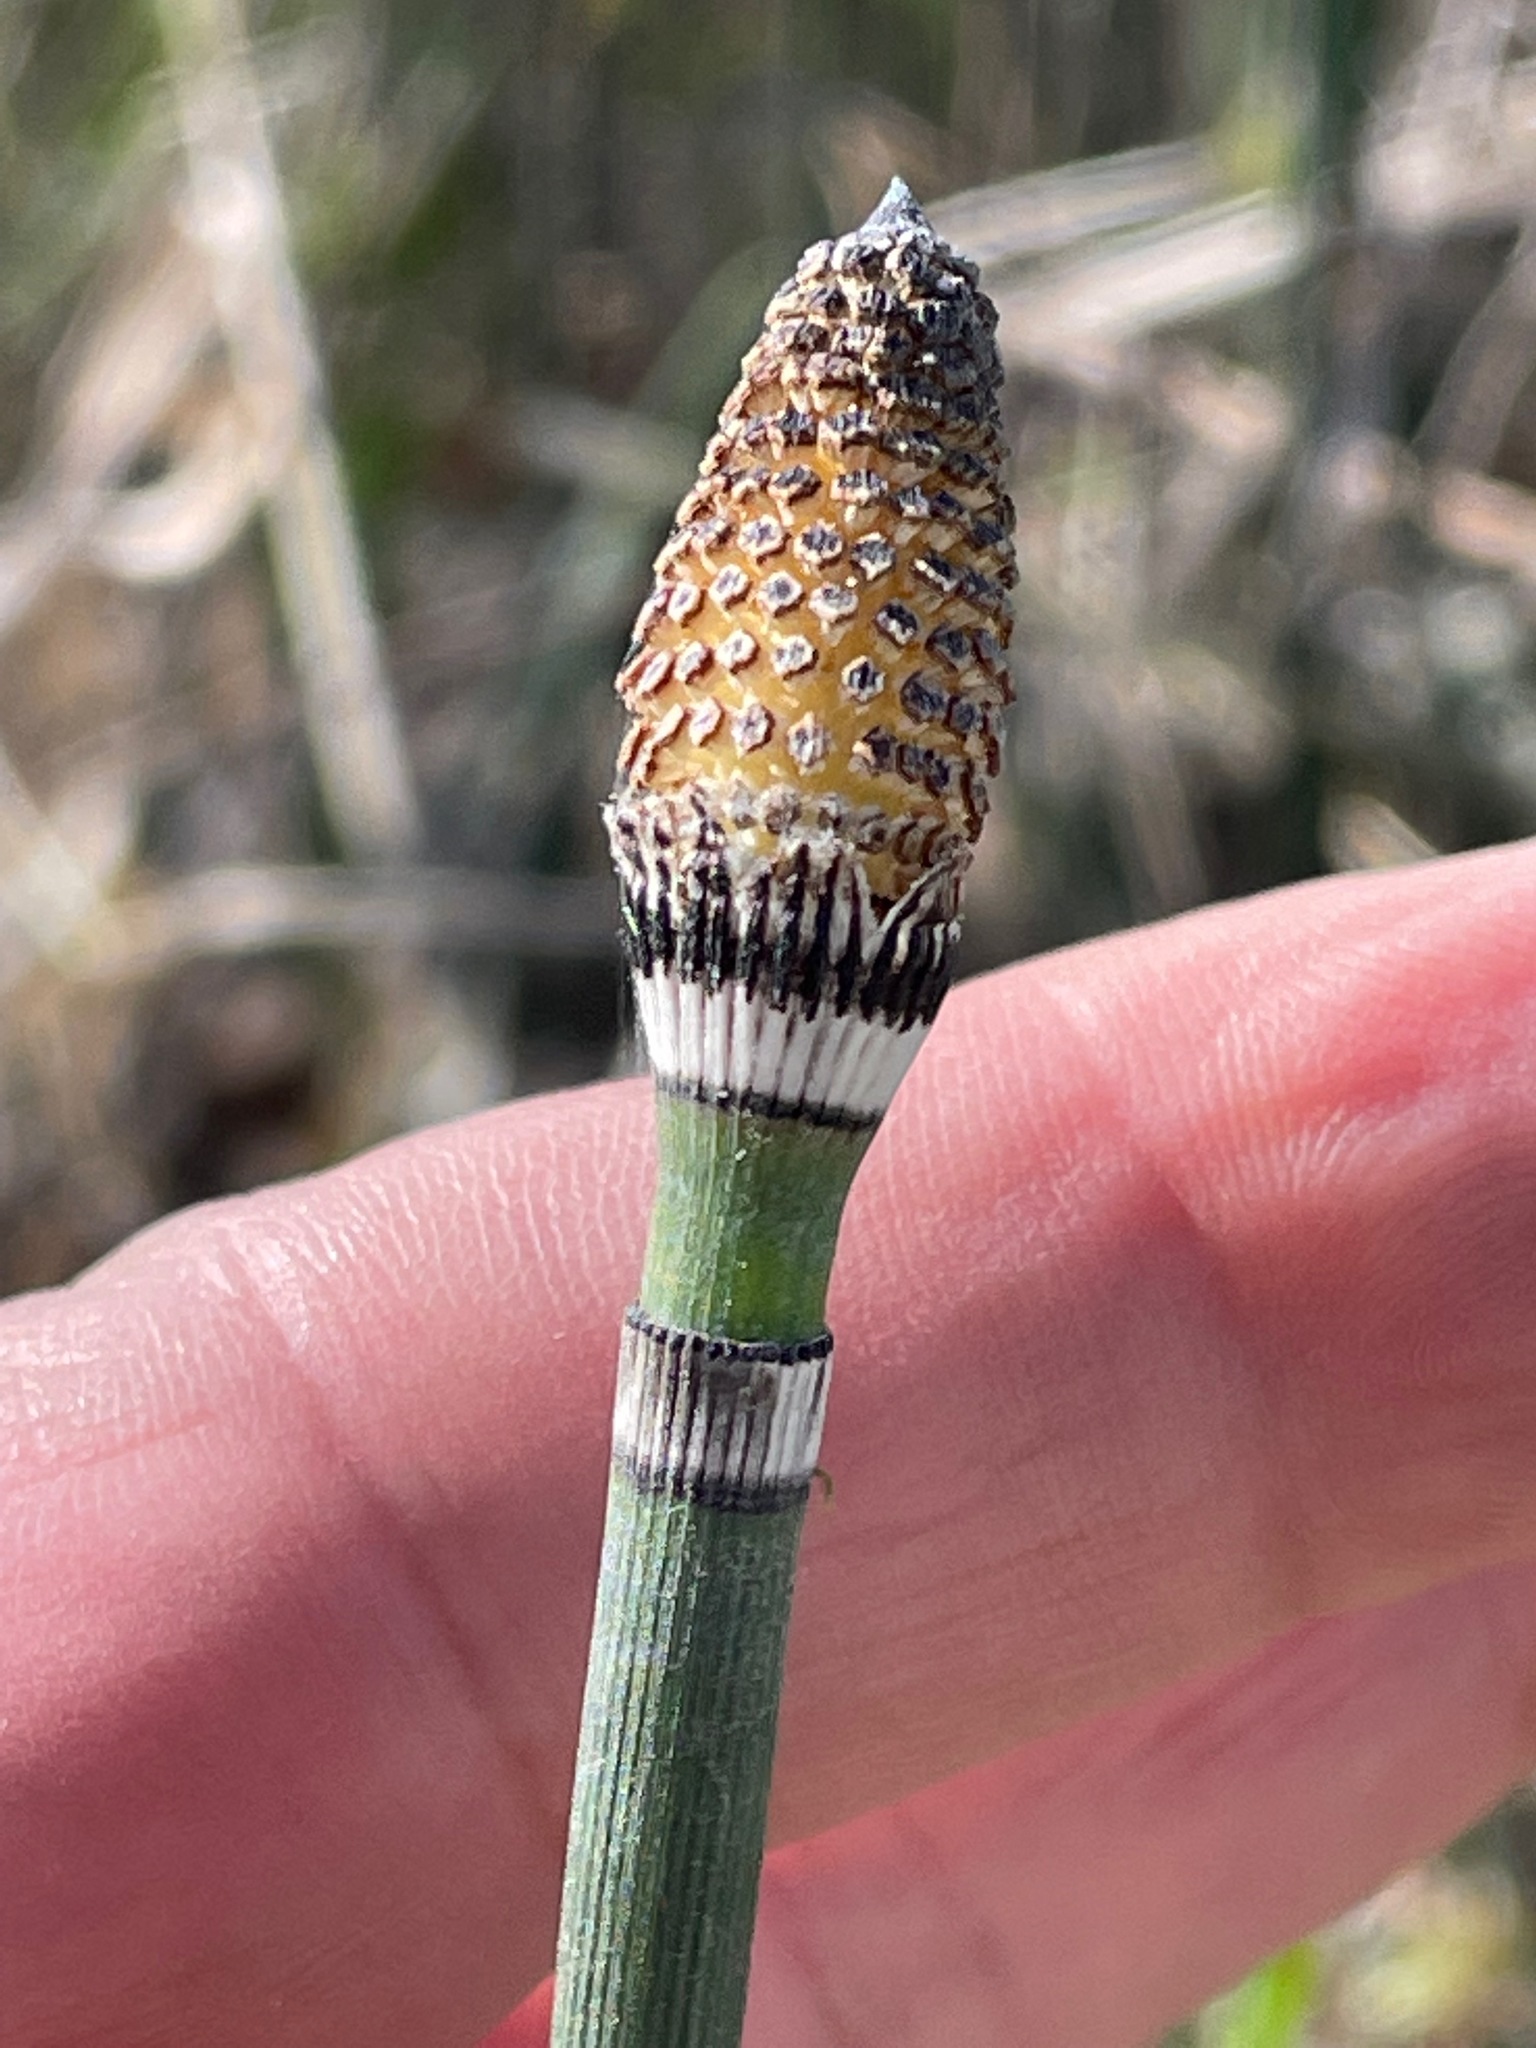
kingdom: Plantae
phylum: Tracheophyta
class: Polypodiopsida
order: Equisetales
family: Equisetaceae
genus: Equisetum
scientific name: Equisetum hyemale
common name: Rough horsetail
